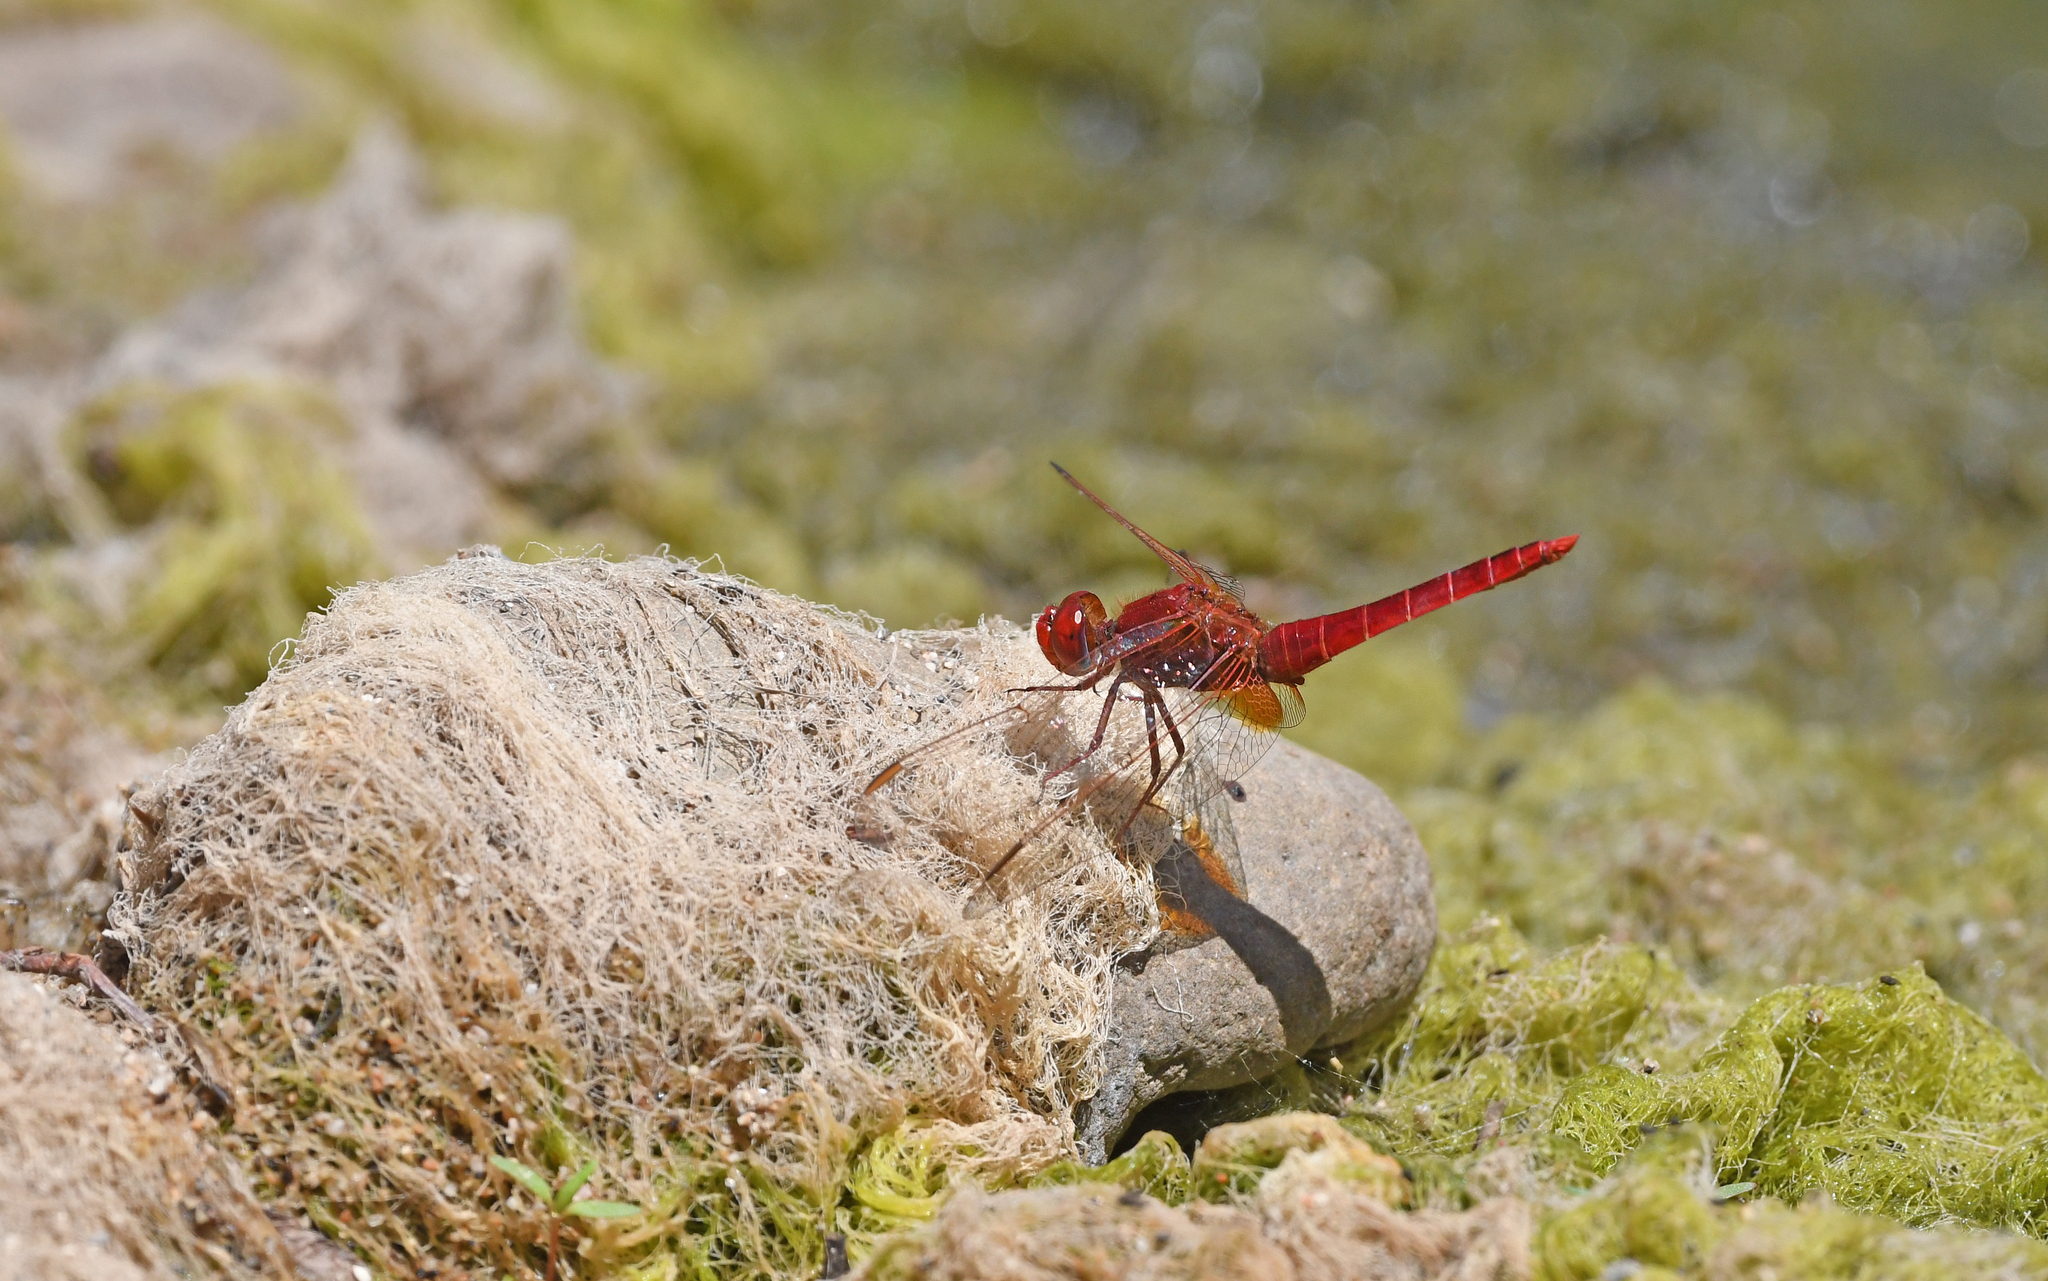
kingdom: Animalia
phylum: Arthropoda
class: Insecta
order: Odonata
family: Libellulidae
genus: Crocothemis
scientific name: Crocothemis erythraea
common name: Scarlet dragonfly
